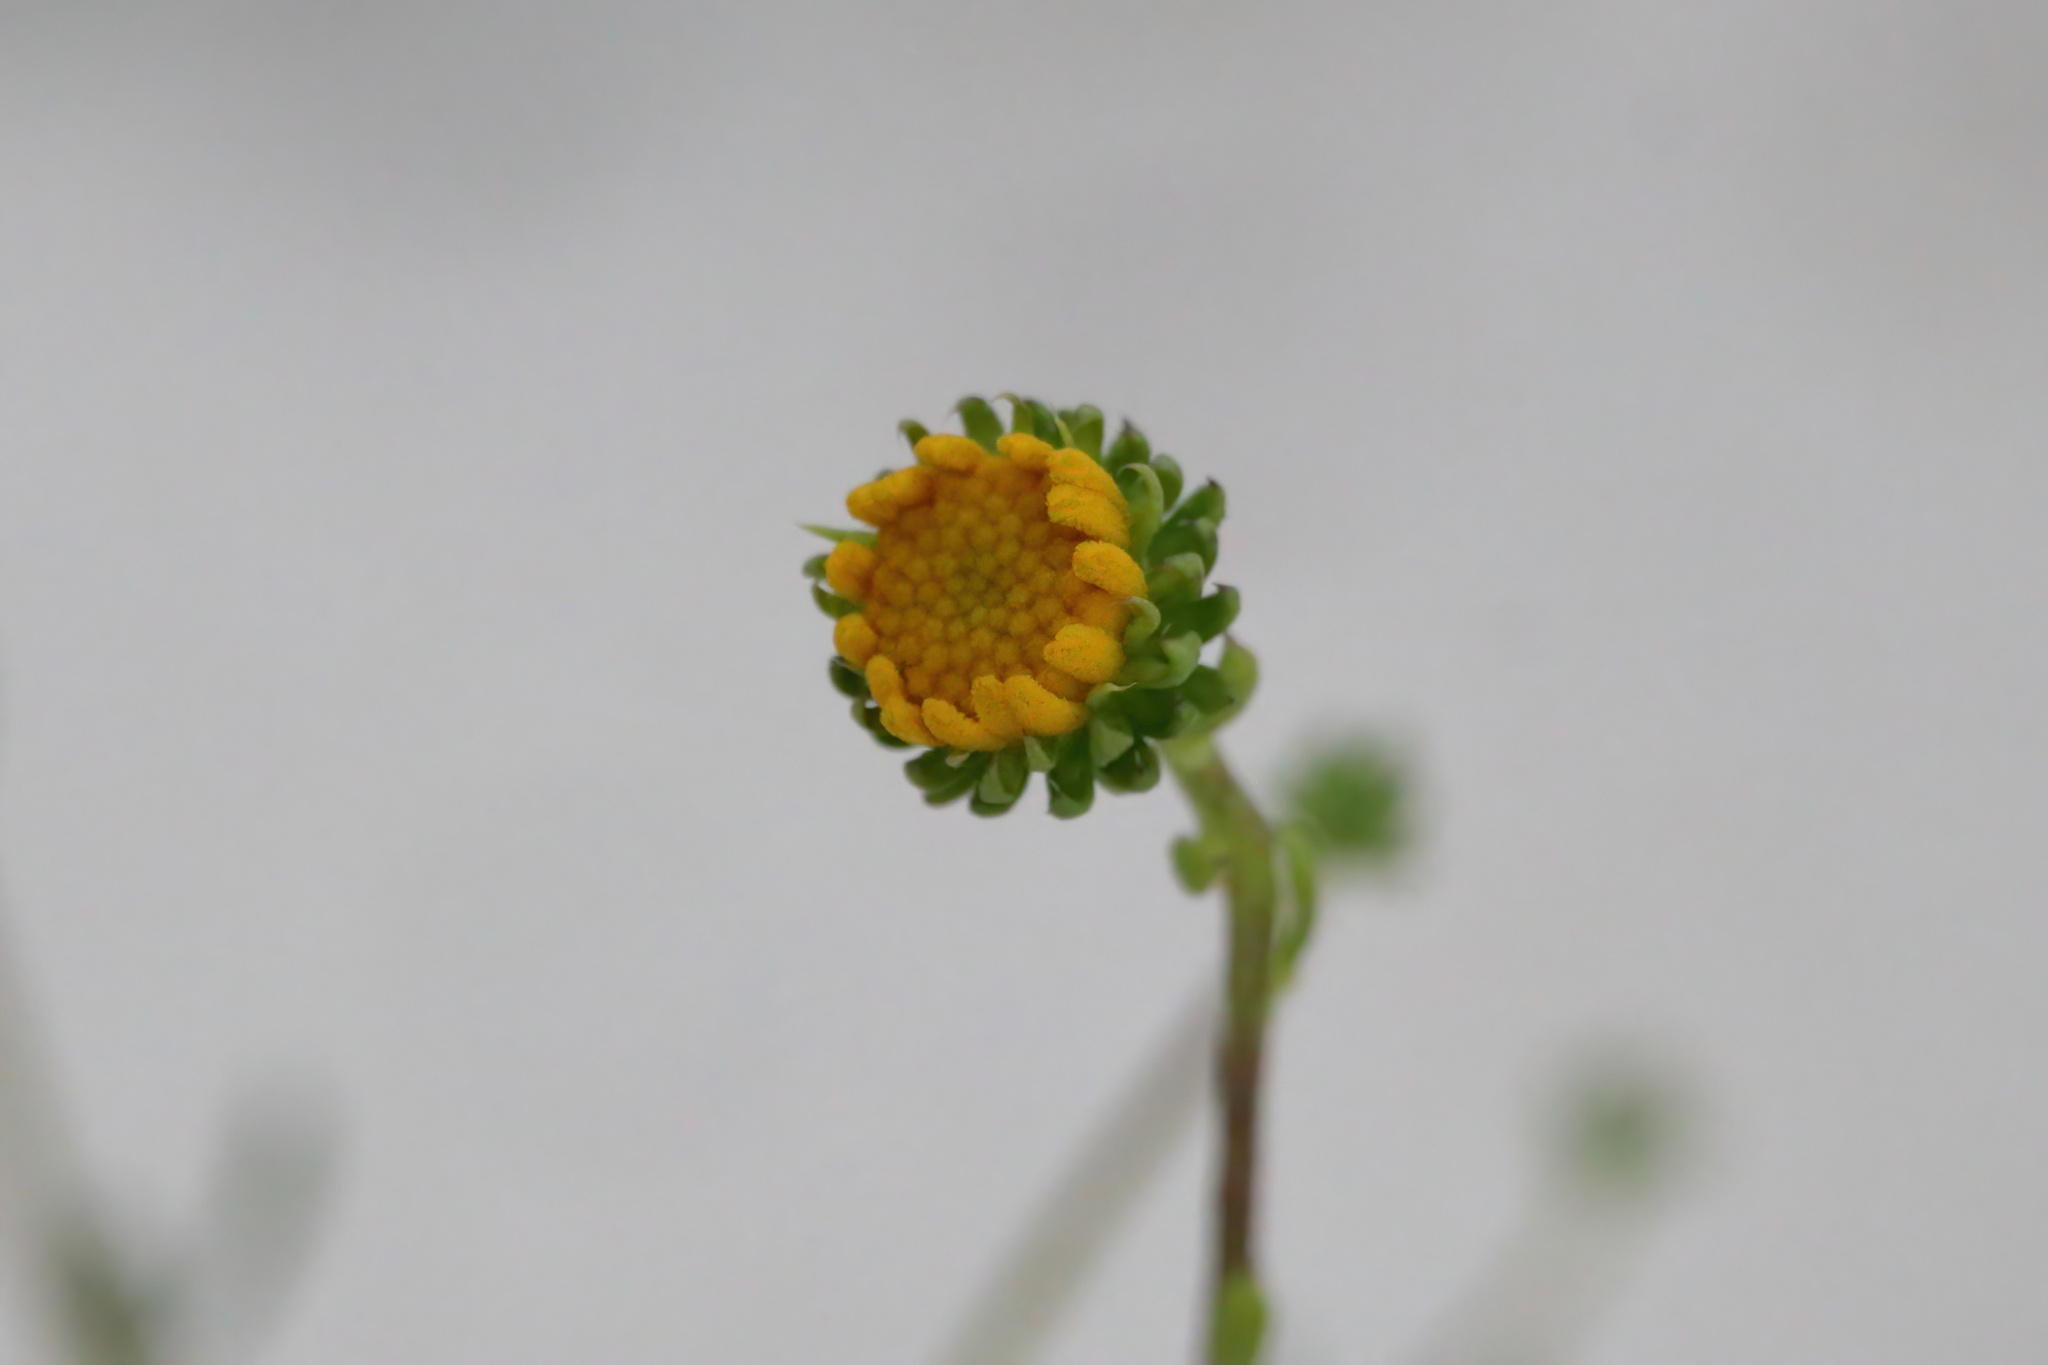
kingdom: Plantae
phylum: Tracheophyta
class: Magnoliopsida
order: Asterales
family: Asteraceae
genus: Balduina
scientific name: Balduina angustifolia
